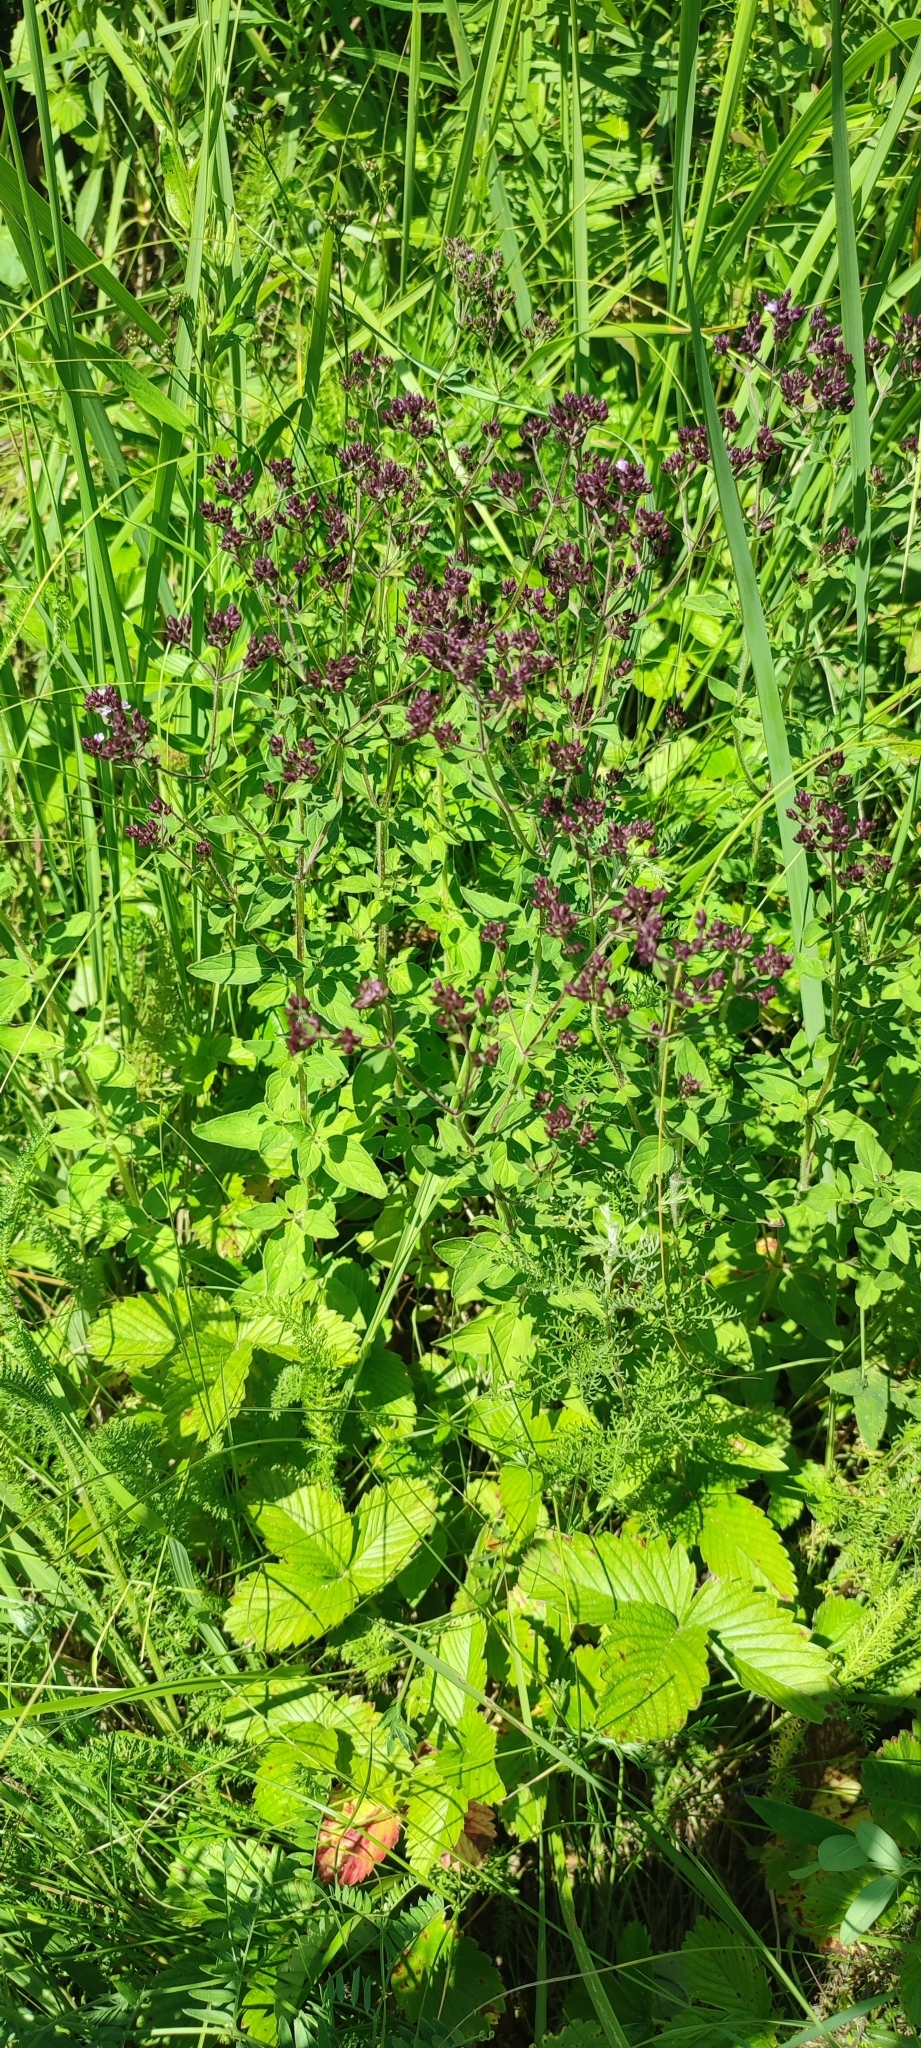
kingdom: Plantae
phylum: Tracheophyta
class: Magnoliopsida
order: Lamiales
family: Lamiaceae
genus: Origanum
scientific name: Origanum vulgare
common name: Wild marjoram
